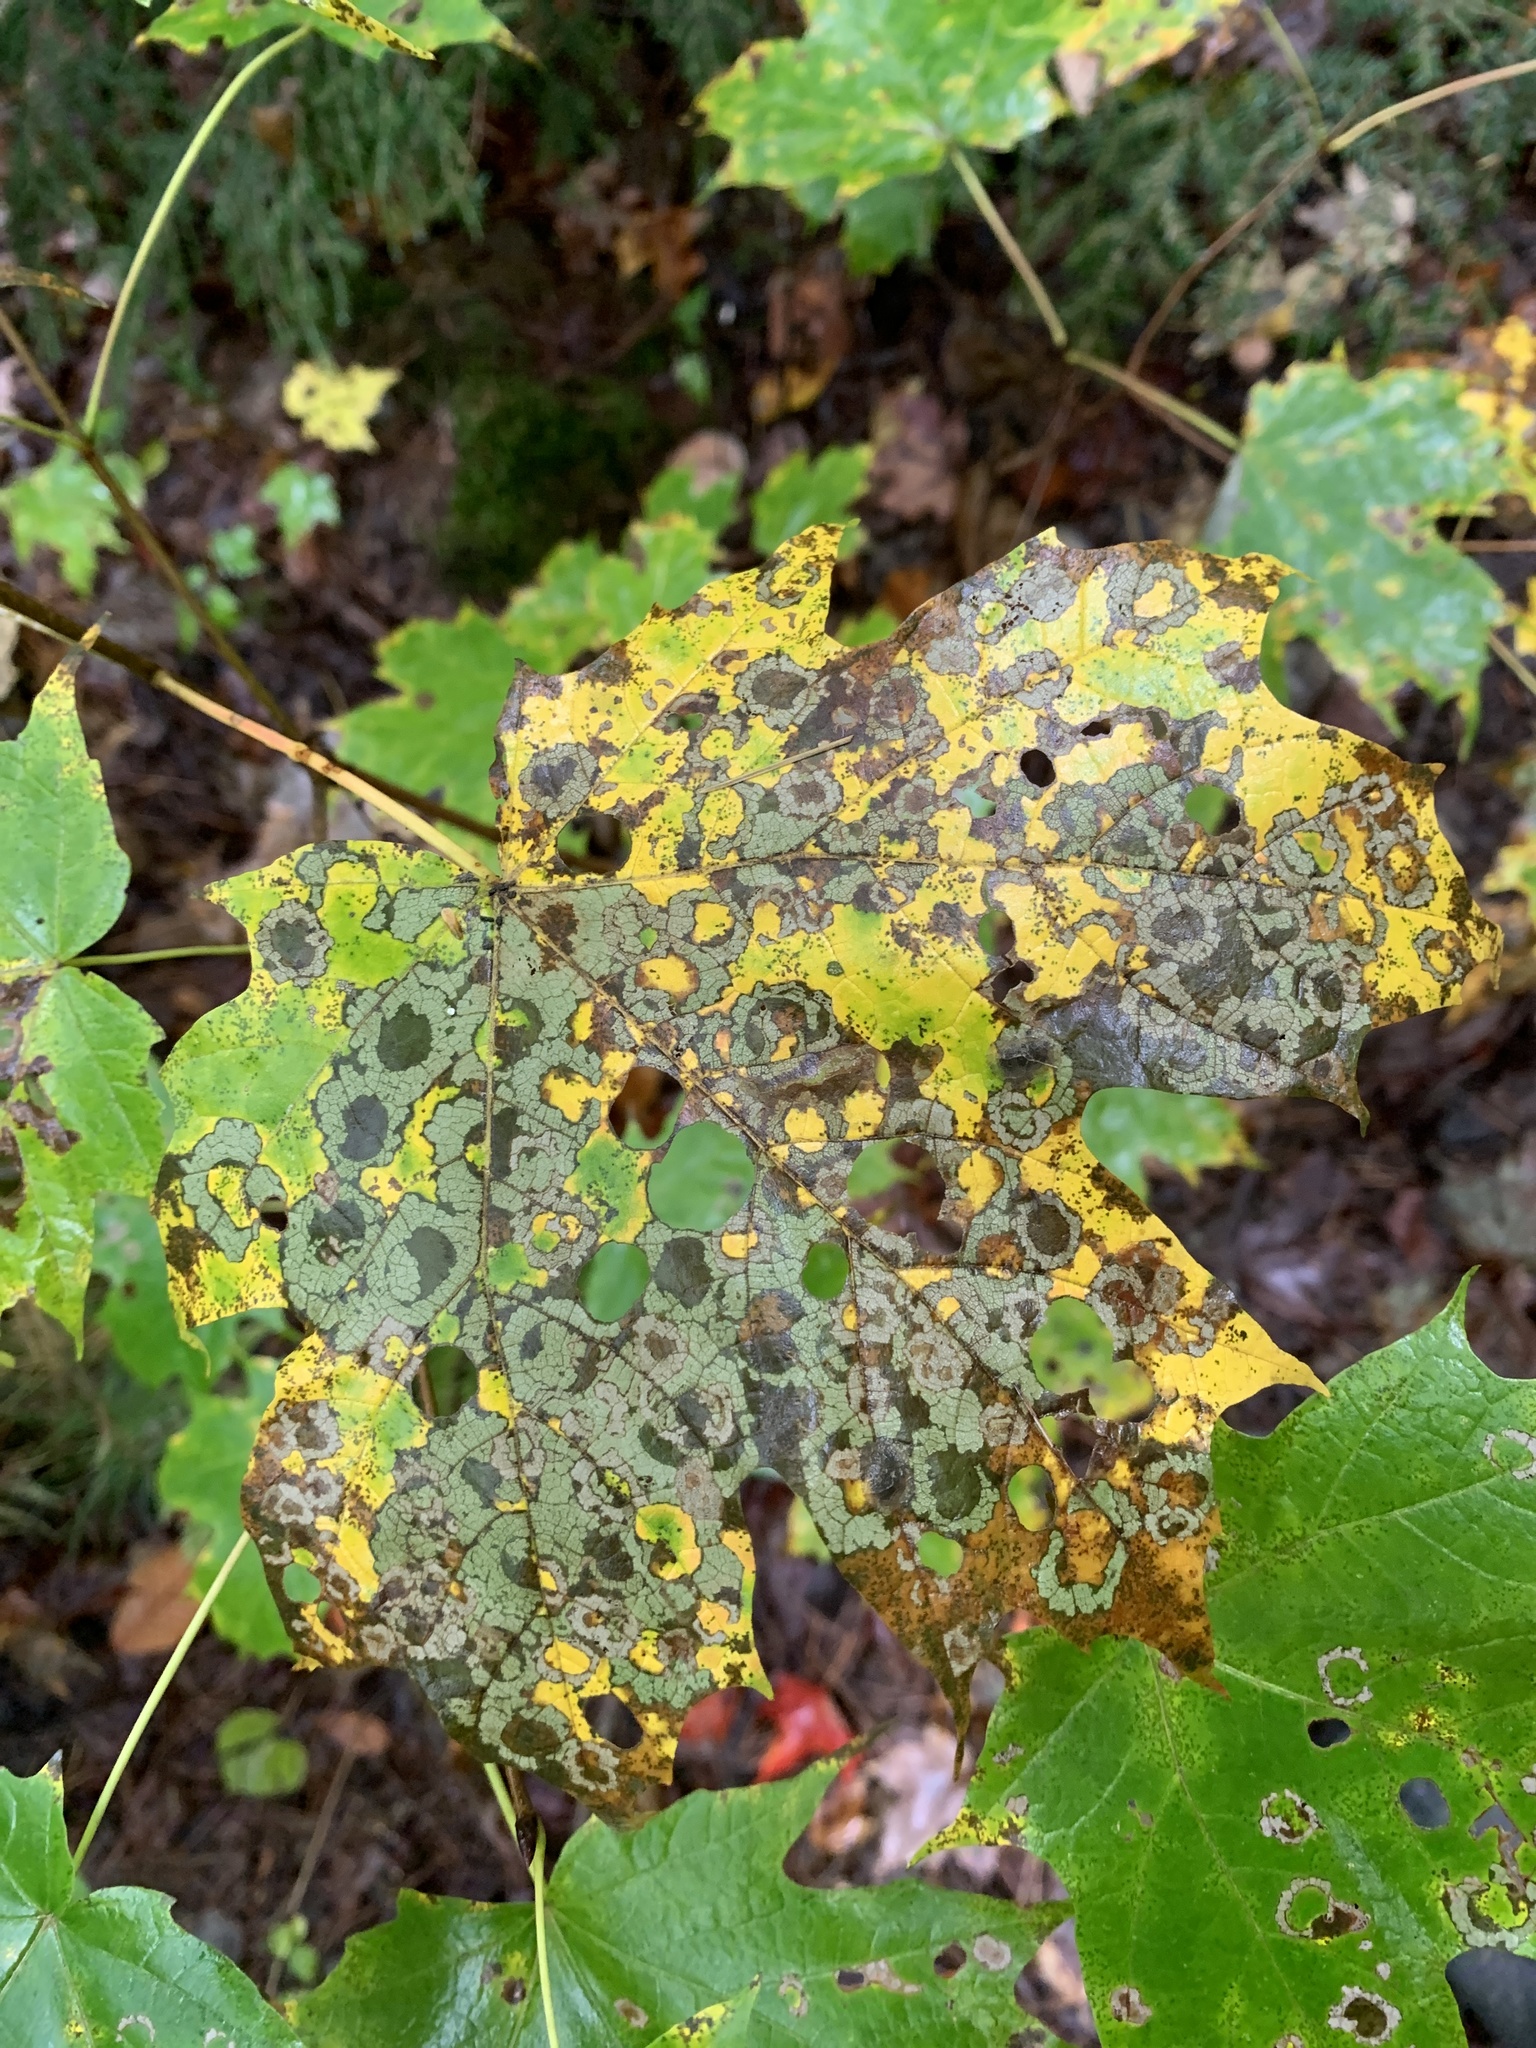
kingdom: Animalia
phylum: Arthropoda
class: Insecta
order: Lepidoptera
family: Incurvariidae
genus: Paraclemensia
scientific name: Paraclemensia acerifoliella
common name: Maple leafcutter
